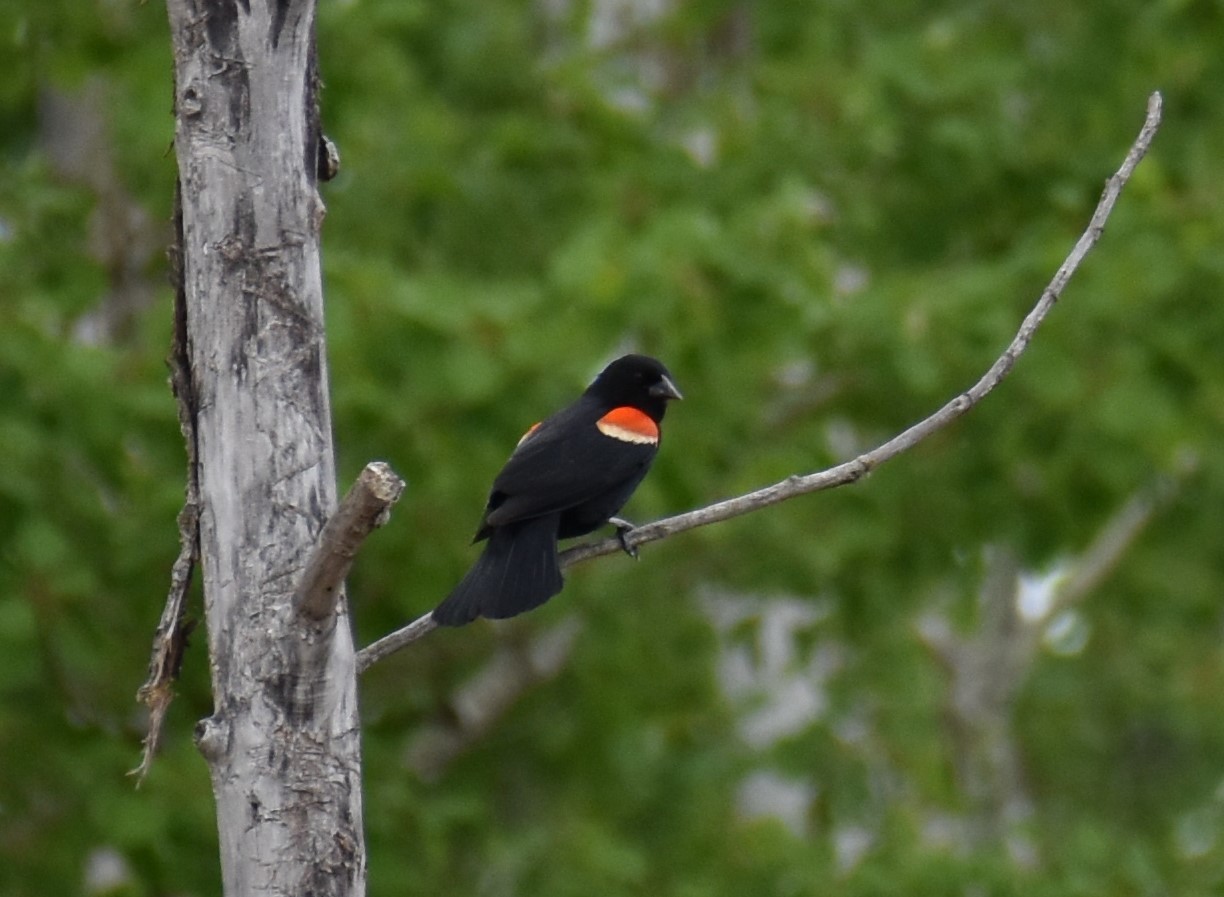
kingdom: Animalia
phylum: Chordata
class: Aves
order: Passeriformes
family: Icteridae
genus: Agelaius
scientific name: Agelaius phoeniceus
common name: Red-winged blackbird
